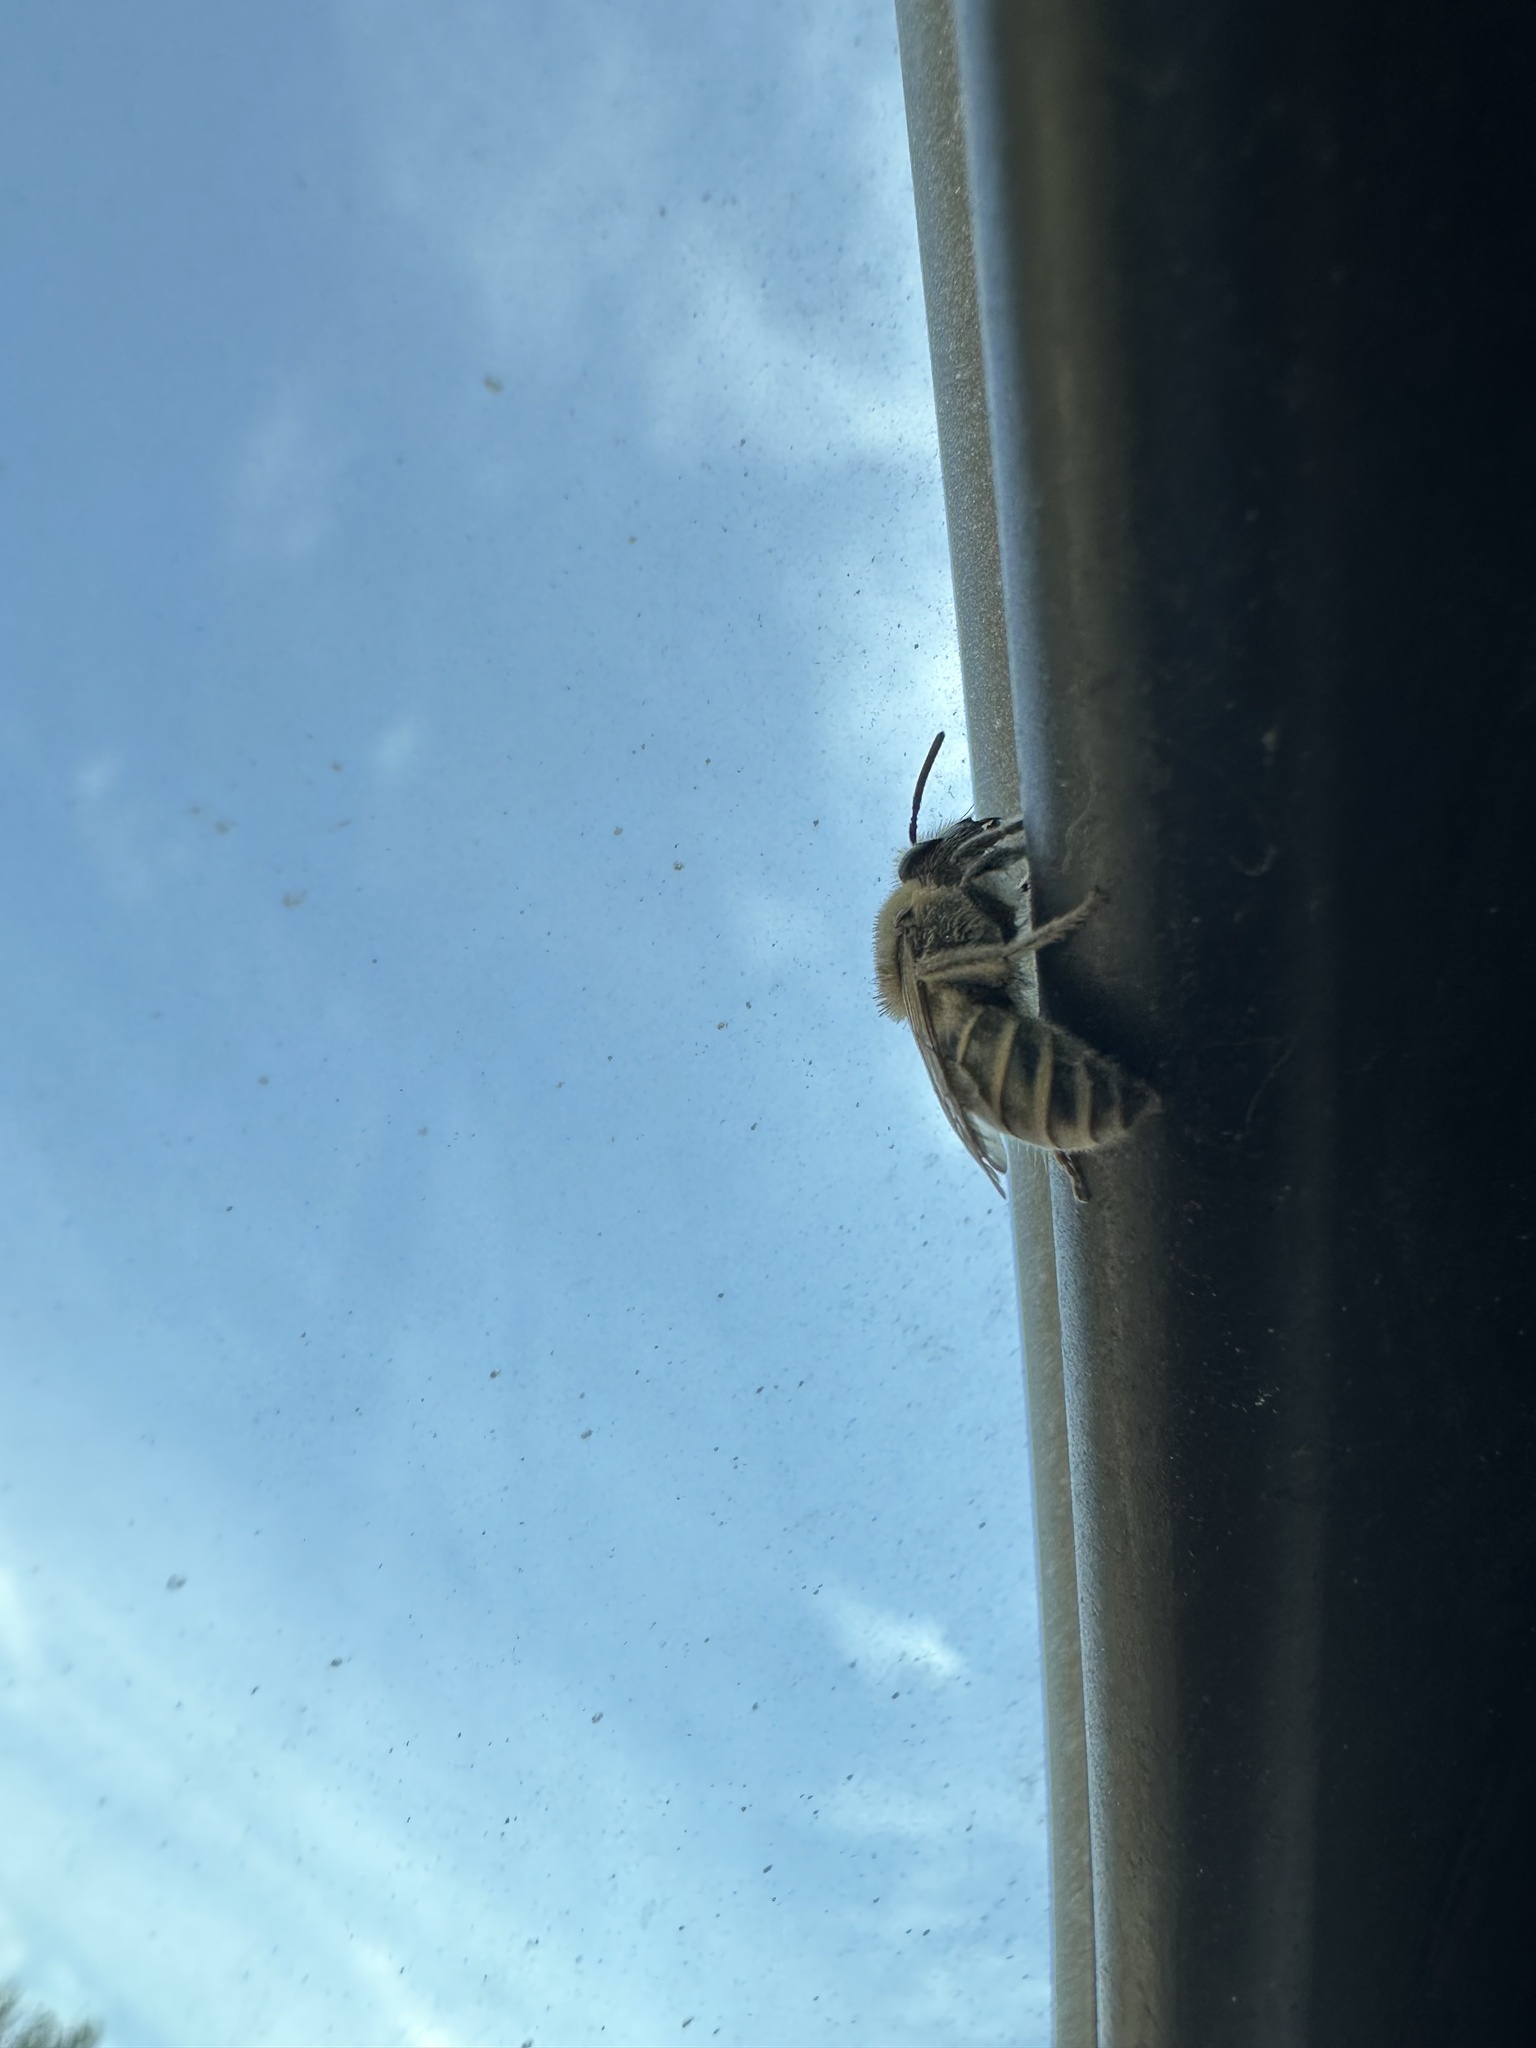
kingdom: Animalia
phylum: Arthropoda
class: Insecta
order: Hymenoptera
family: Colletidae
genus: Colletes
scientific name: Colletes validus
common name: Blueberry cellophane bee
